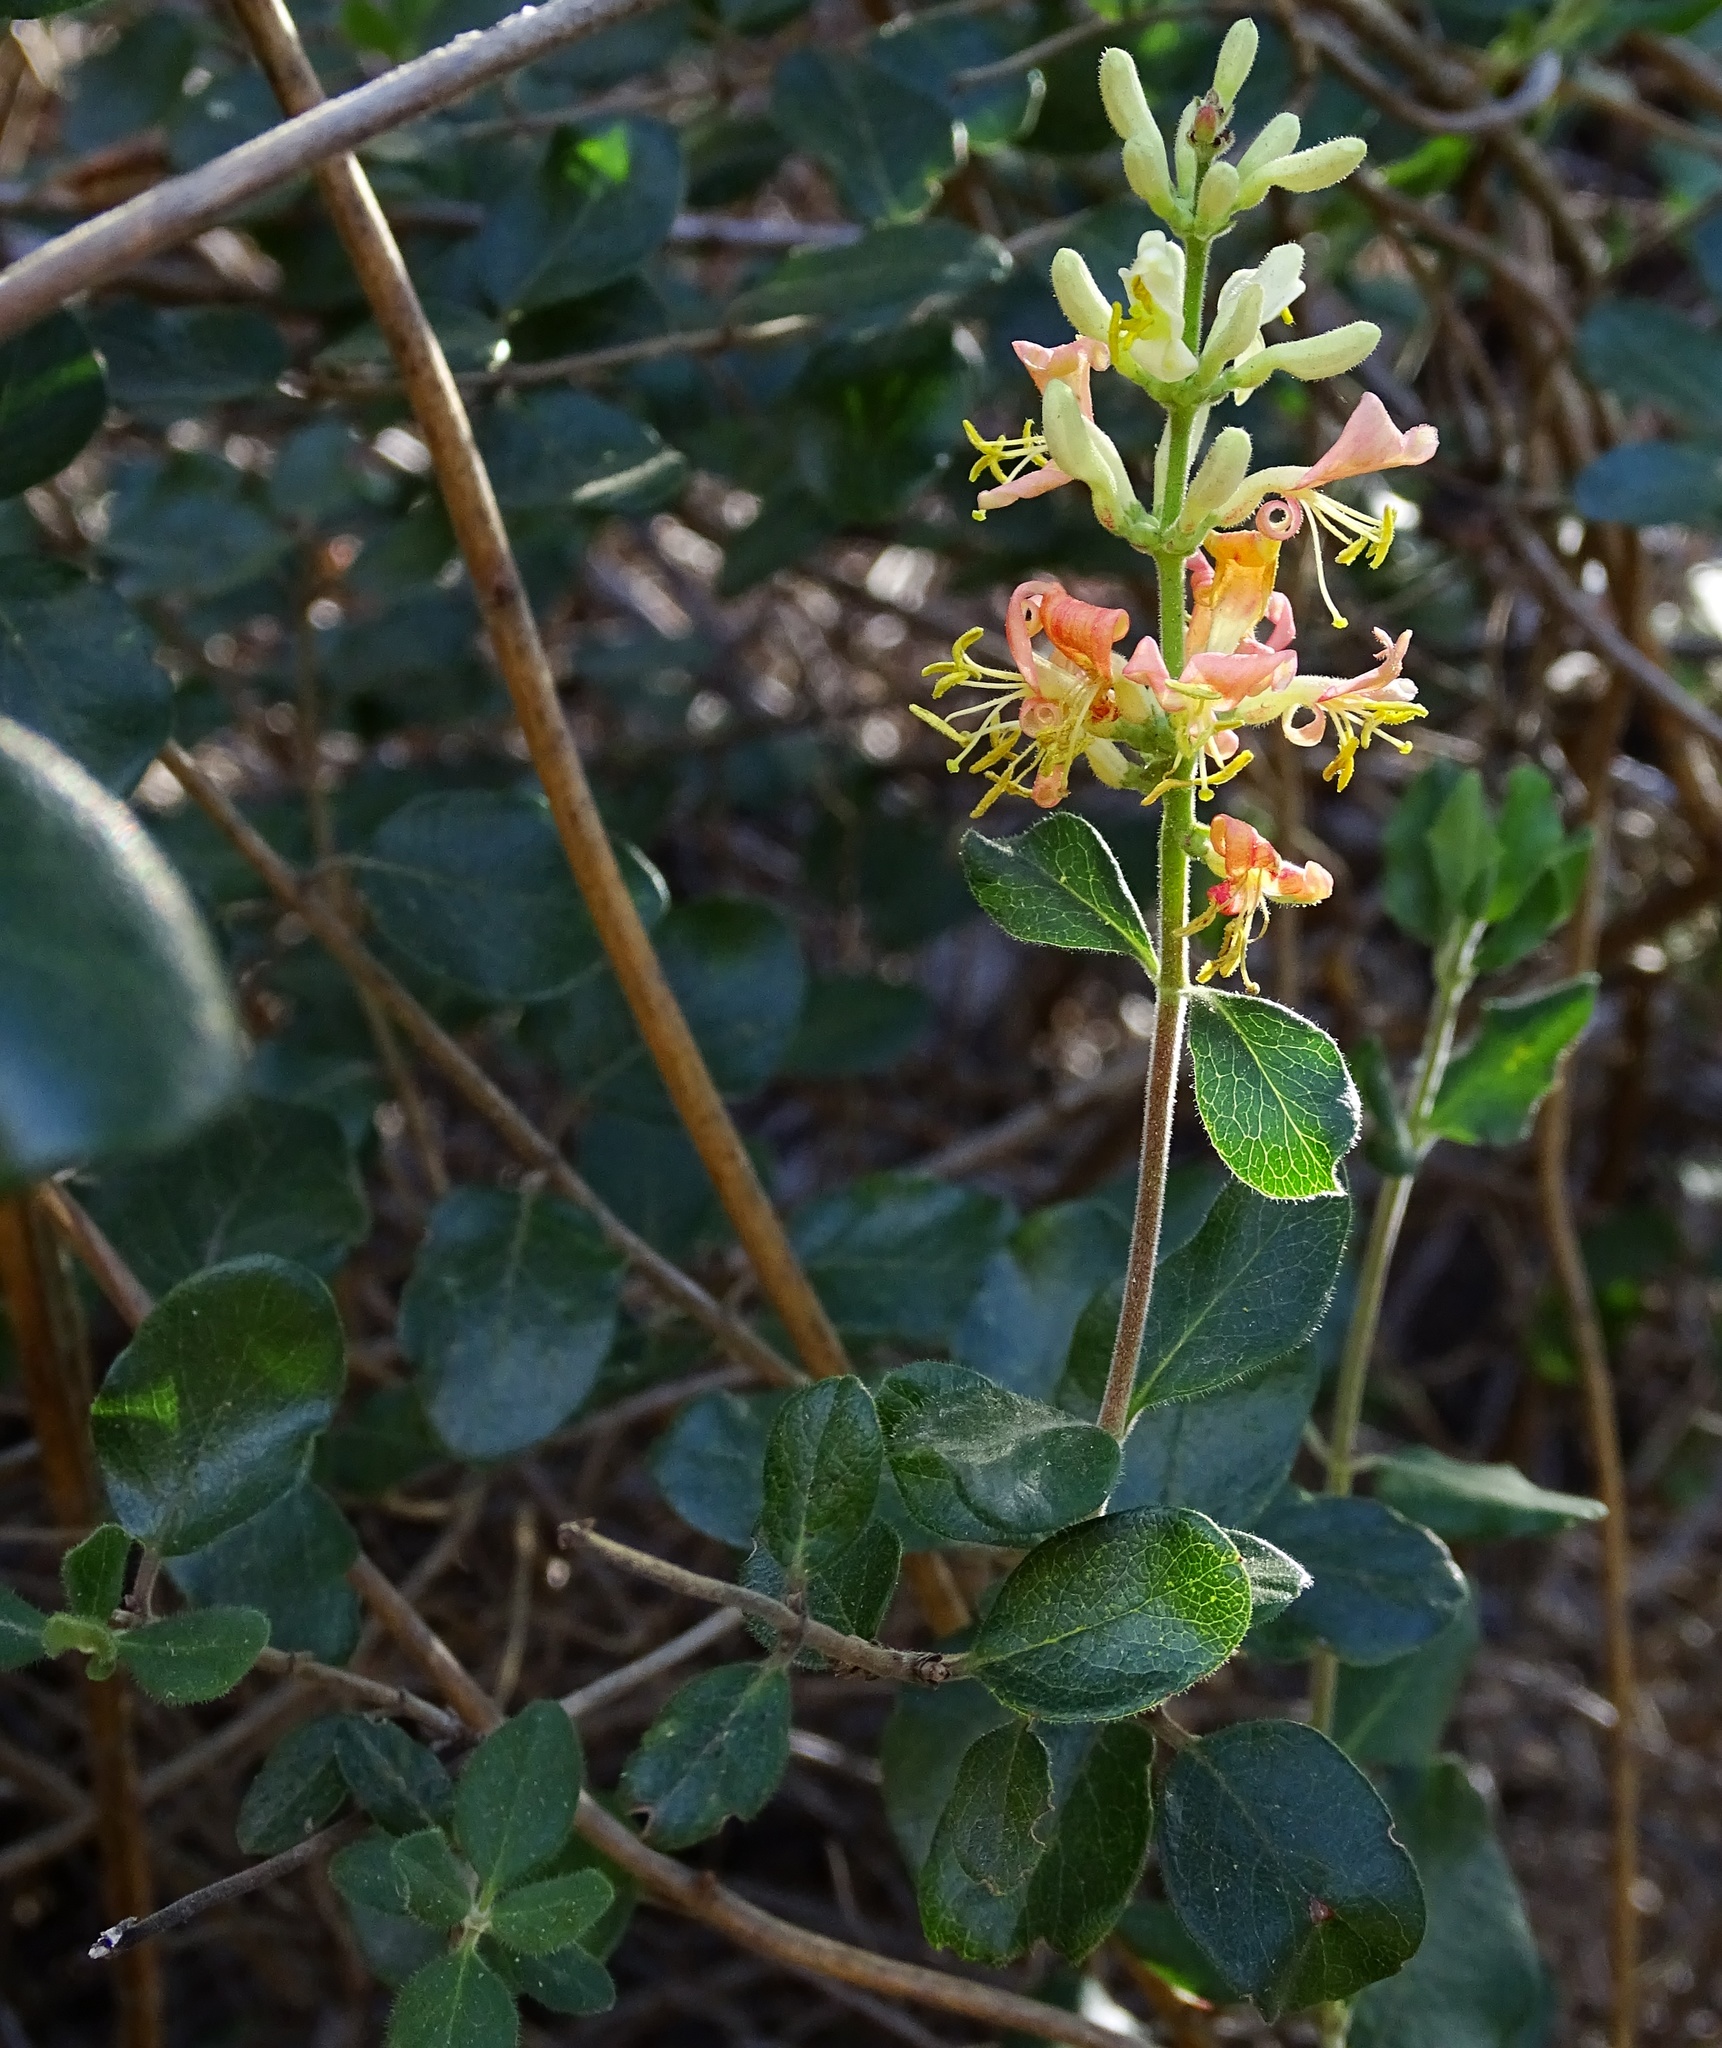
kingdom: Plantae
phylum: Tracheophyta
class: Magnoliopsida
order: Dipsacales
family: Caprifoliaceae
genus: Lonicera
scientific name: Lonicera subspicata
